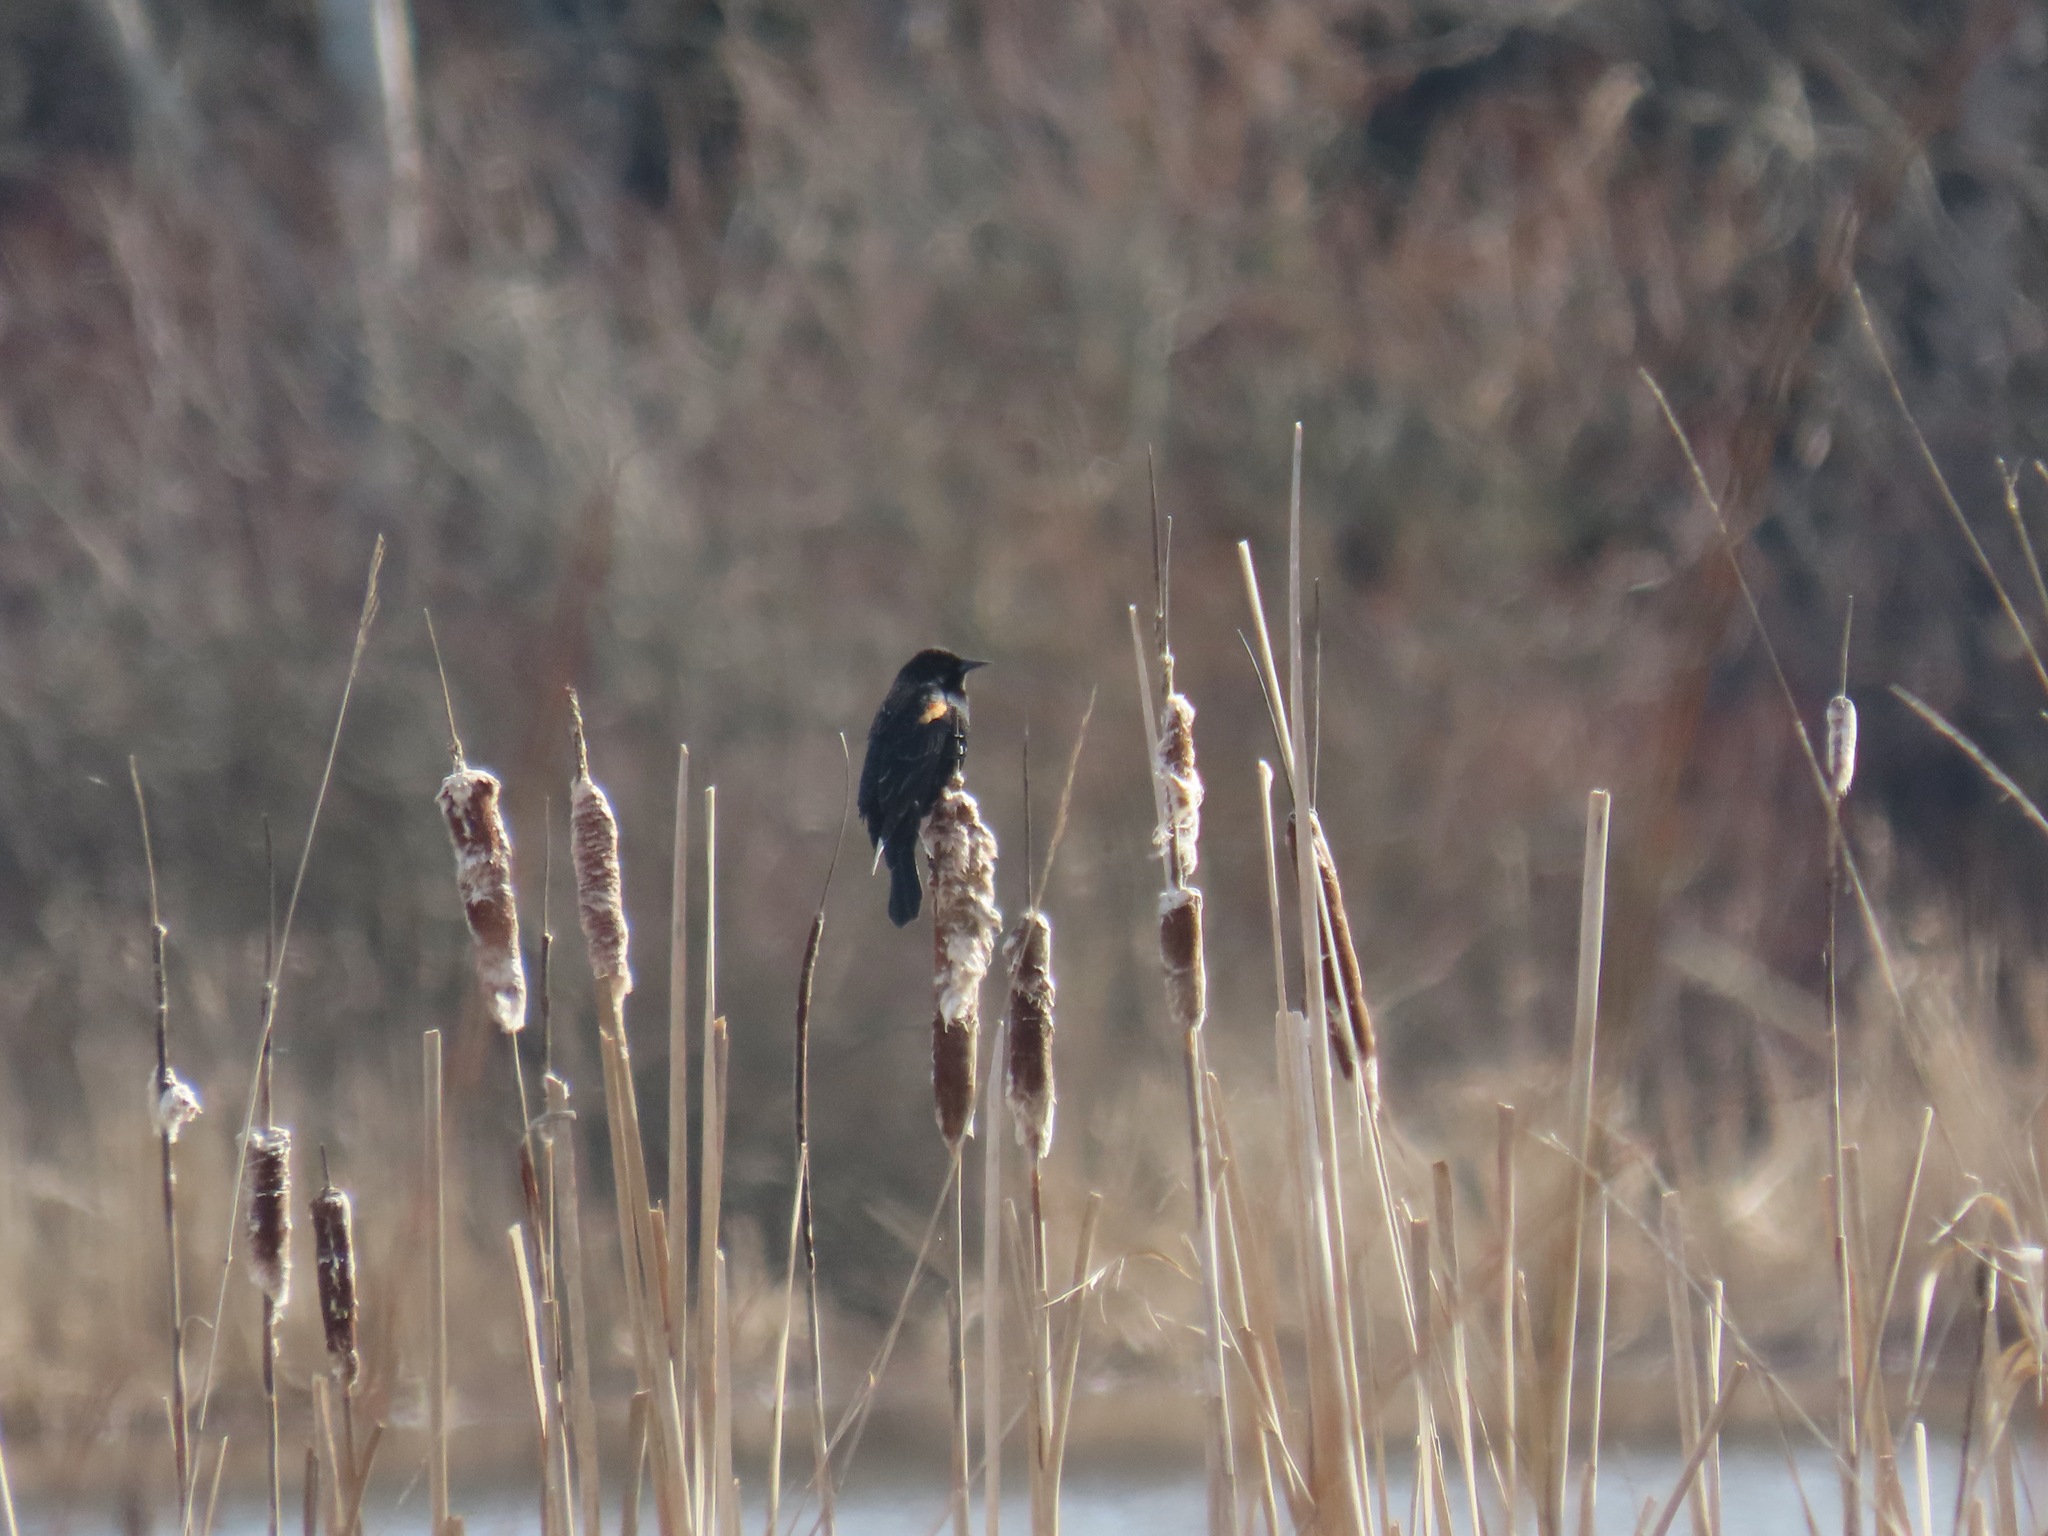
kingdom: Animalia
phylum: Chordata
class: Aves
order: Passeriformes
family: Icteridae
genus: Agelaius
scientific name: Agelaius phoeniceus
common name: Red-winged blackbird
